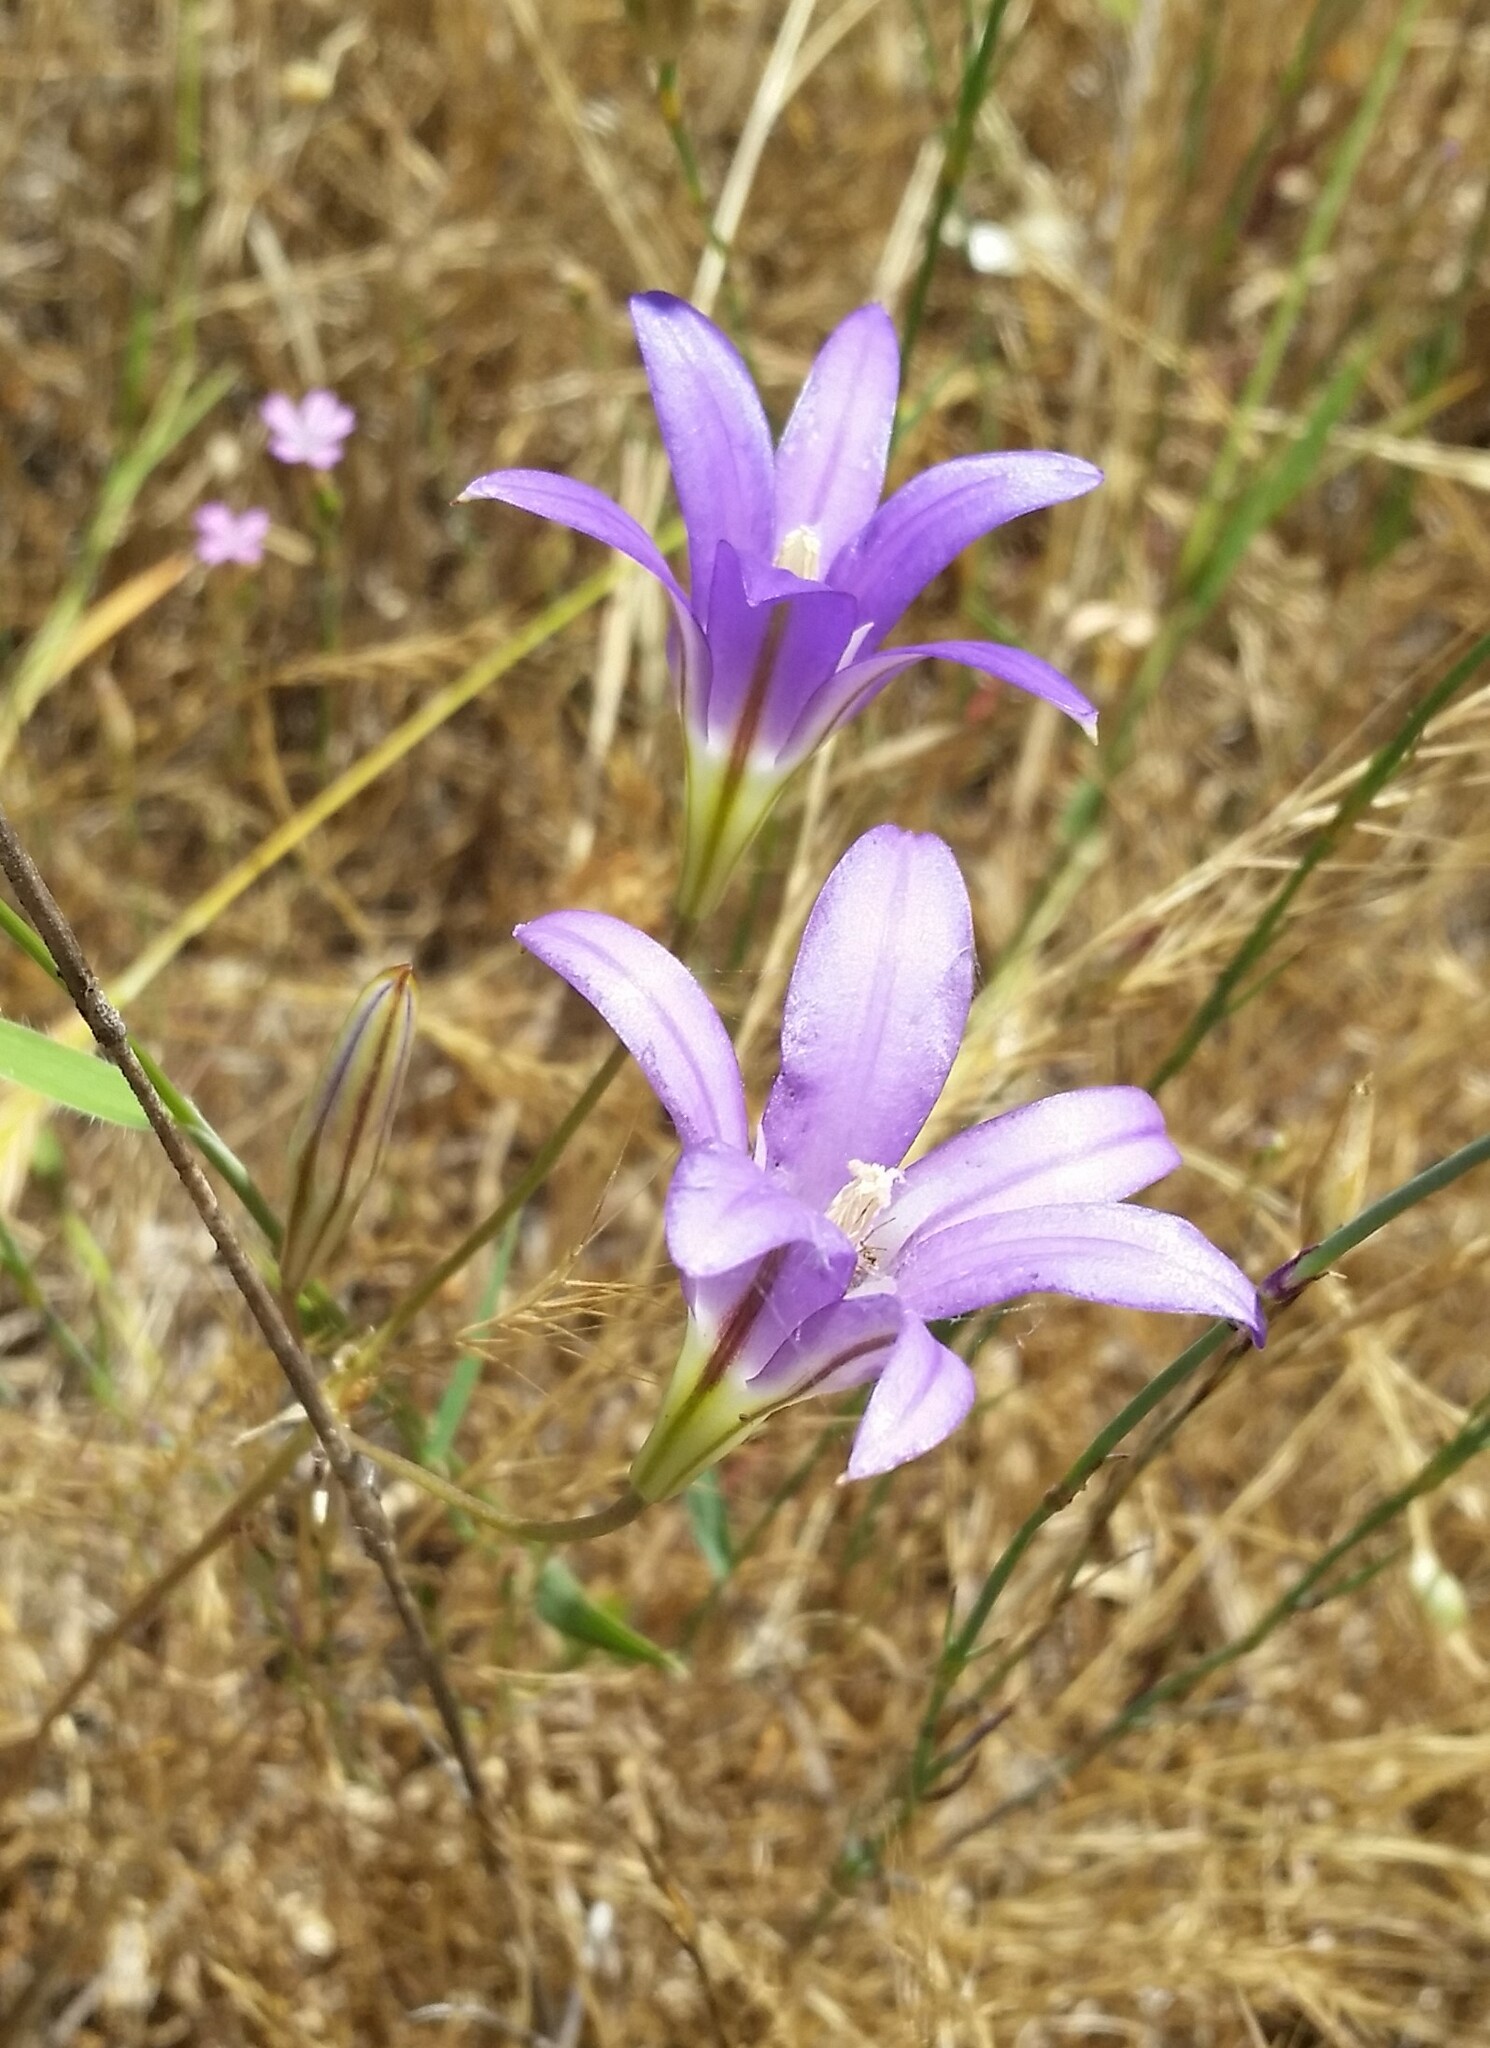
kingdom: Plantae
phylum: Tracheophyta
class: Liliopsida
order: Asparagales
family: Asparagaceae
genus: Brodiaea
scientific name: Brodiaea elegans
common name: Elegant cluster-lily
